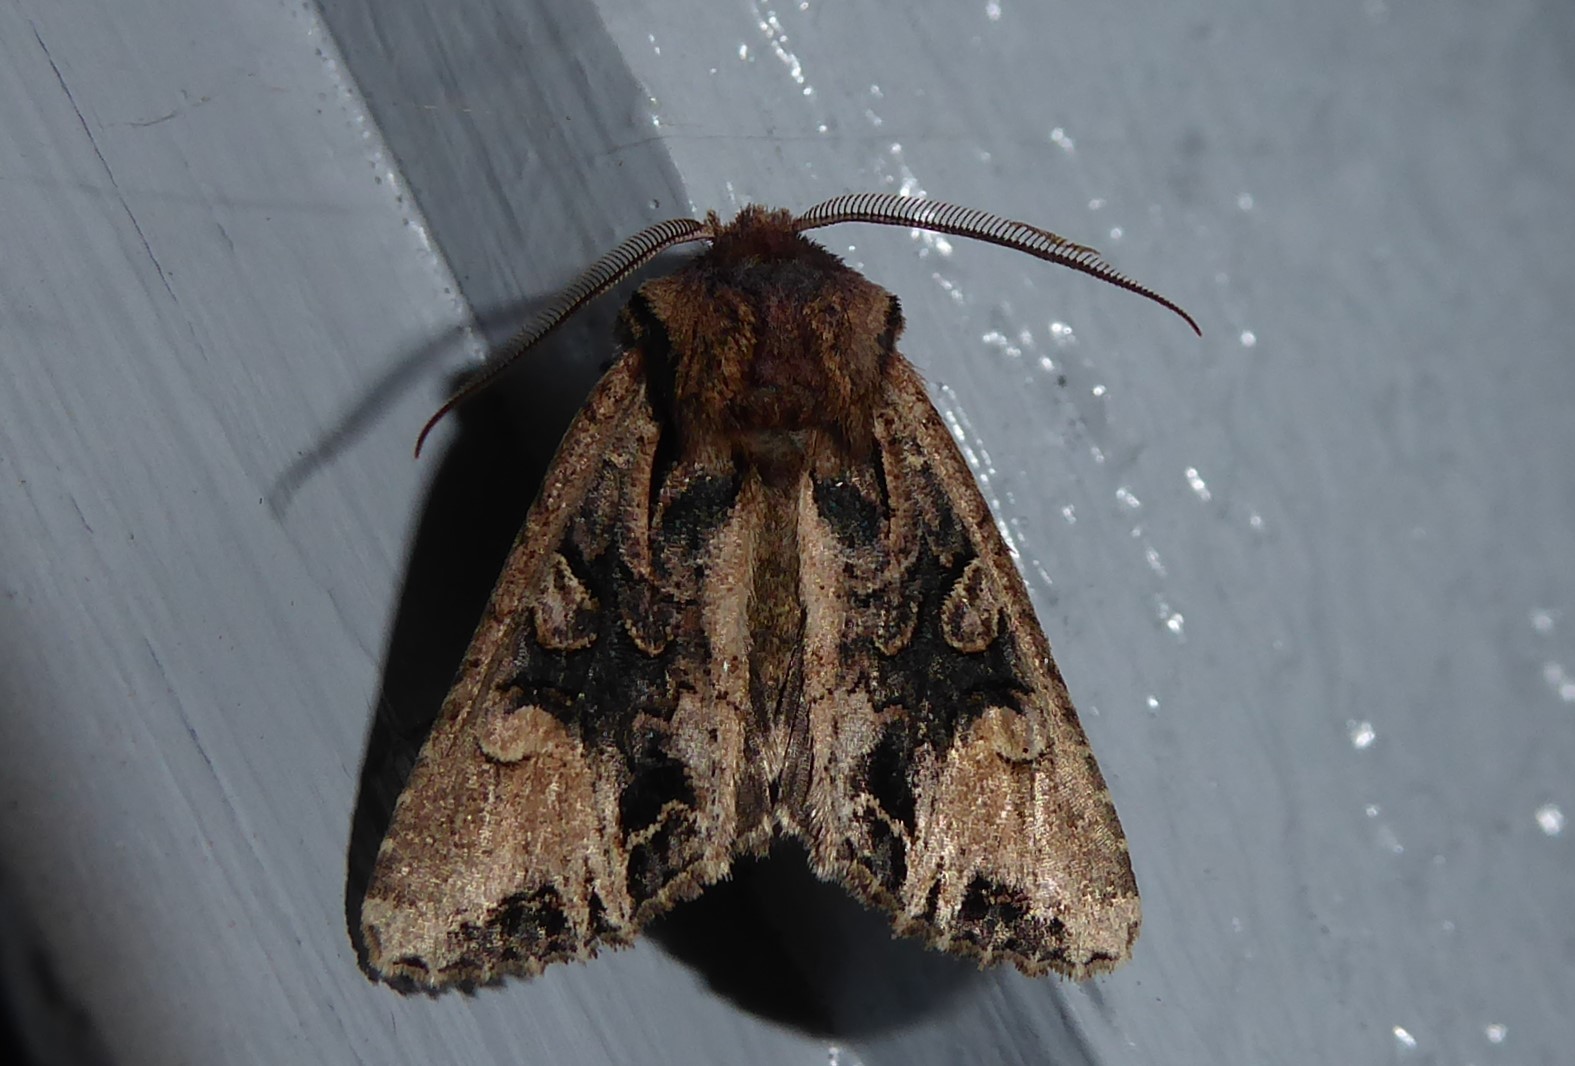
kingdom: Animalia
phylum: Arthropoda
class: Insecta
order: Lepidoptera
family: Noctuidae
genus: Ichneutica
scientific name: Ichneutica
